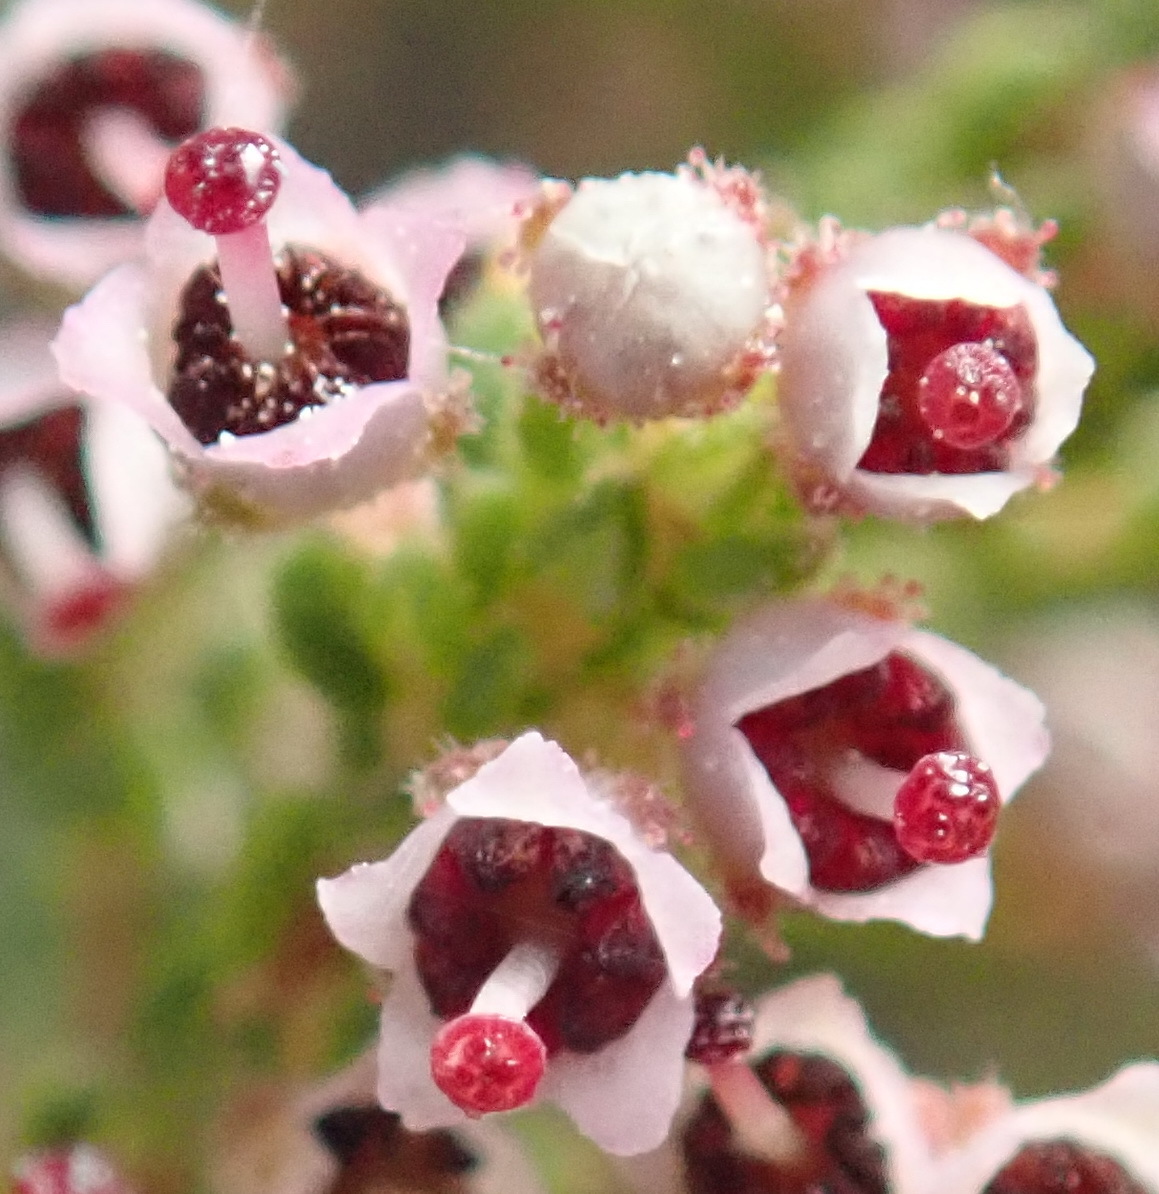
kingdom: Plantae
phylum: Tracheophyta
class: Magnoliopsida
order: Ericales
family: Ericaceae
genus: Erica
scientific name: Erica hispidula
